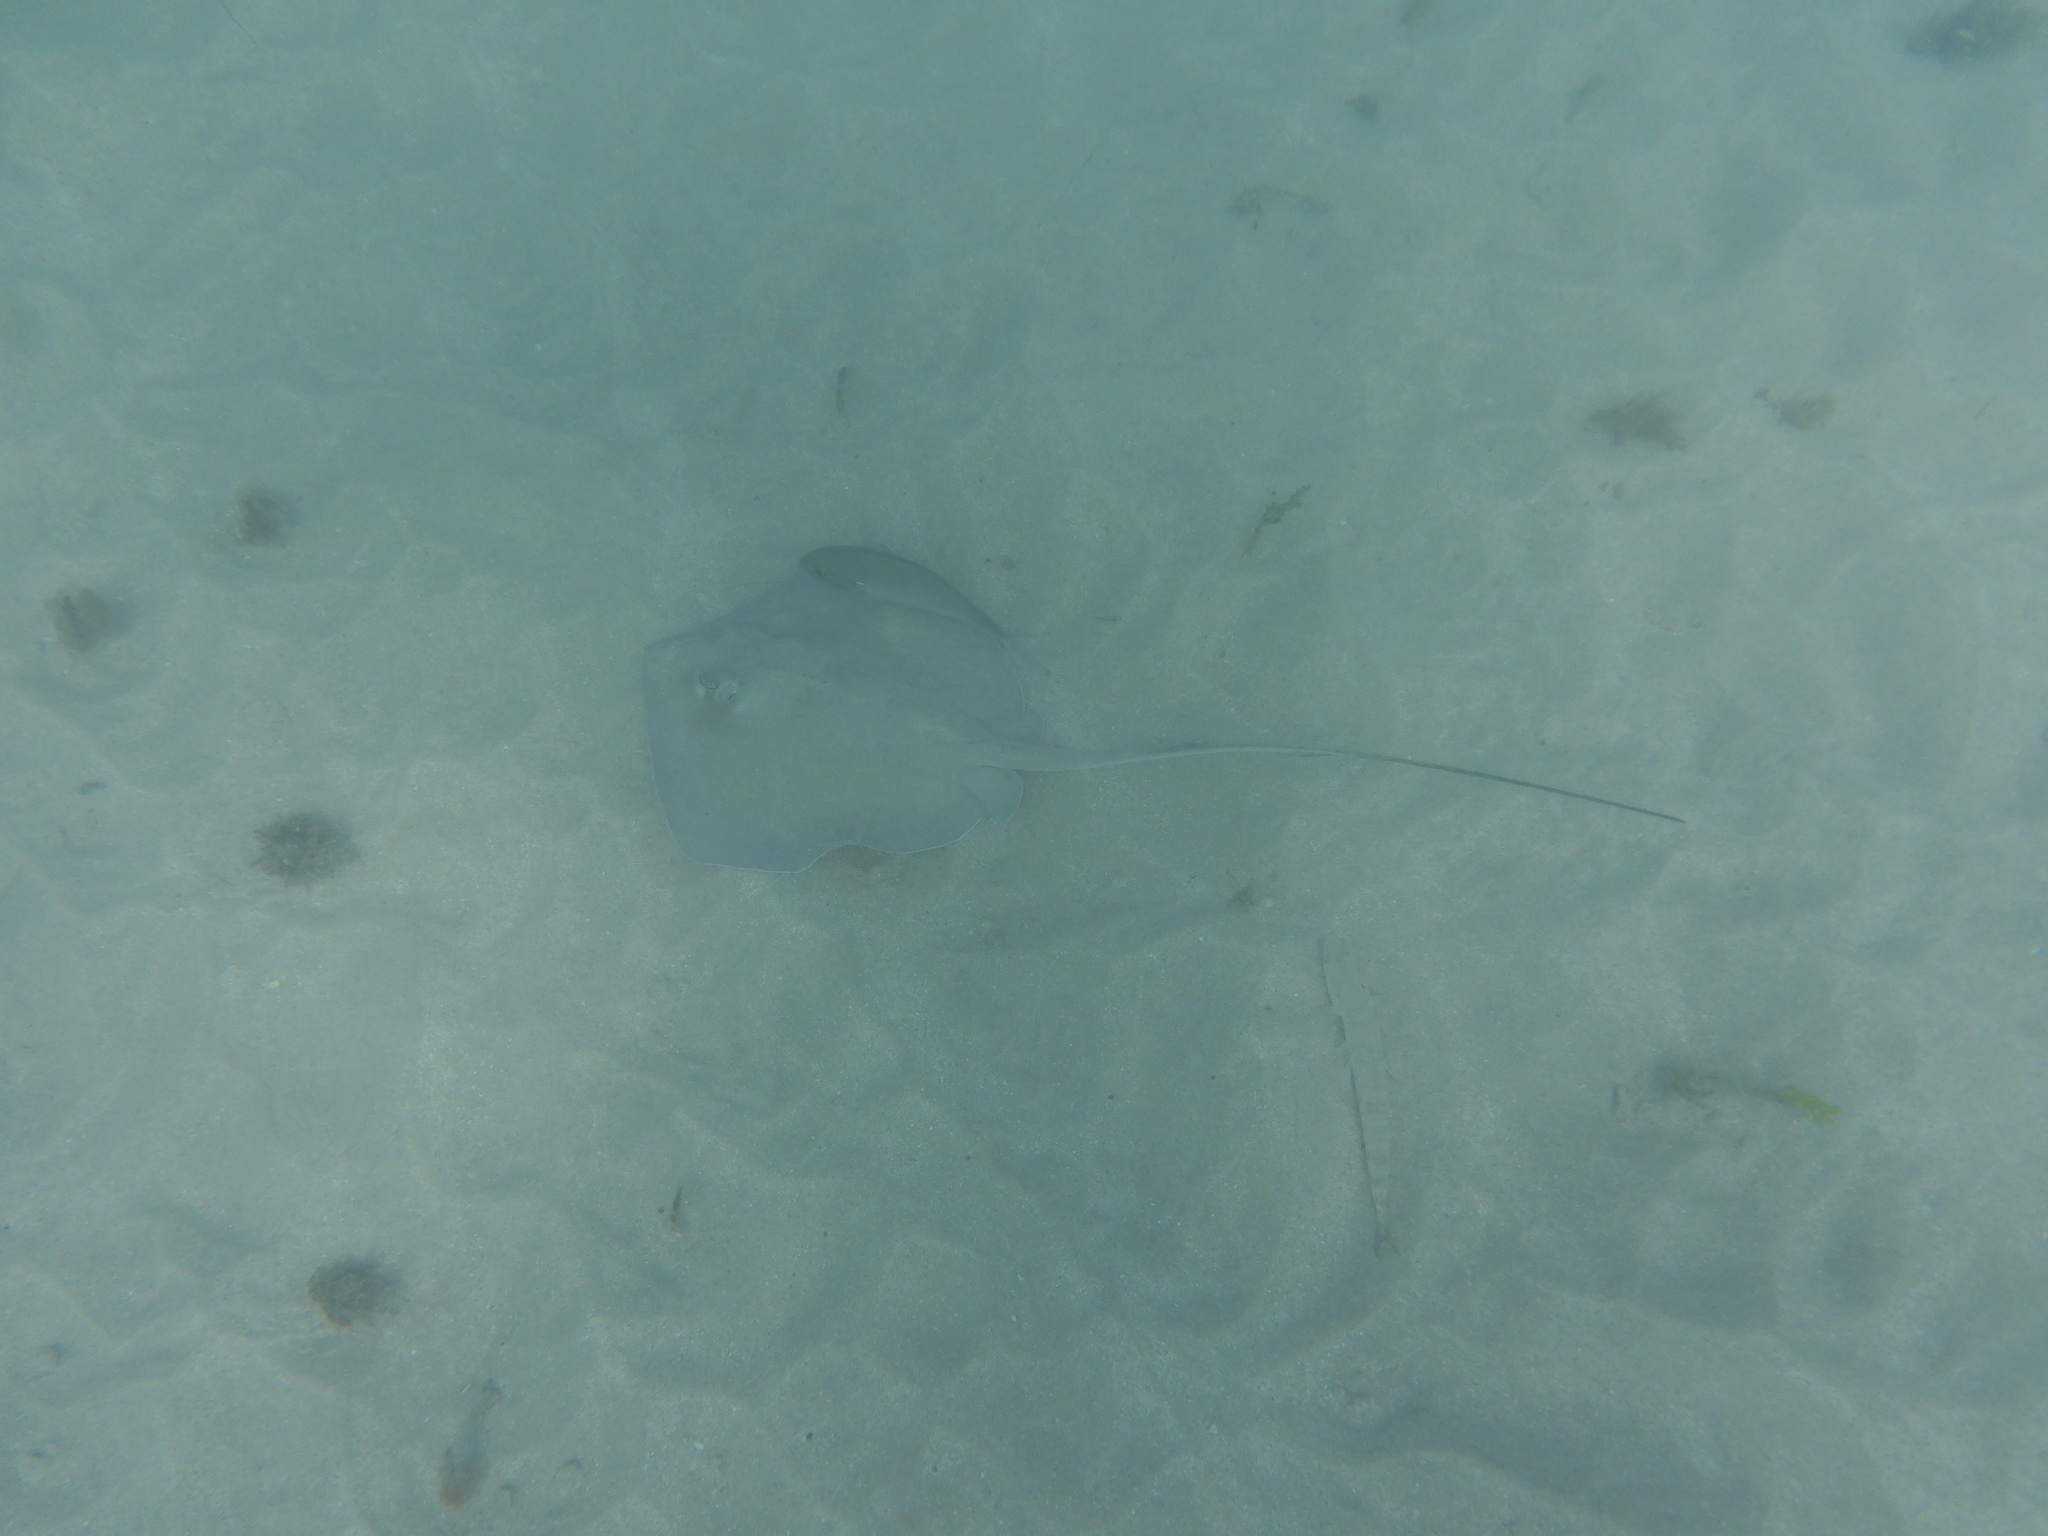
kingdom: Animalia
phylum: Chordata
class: Elasmobranchii
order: Myliobatiformes
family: Dasyatidae
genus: Hypanus
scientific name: Hypanus americanus
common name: Southern stingray
